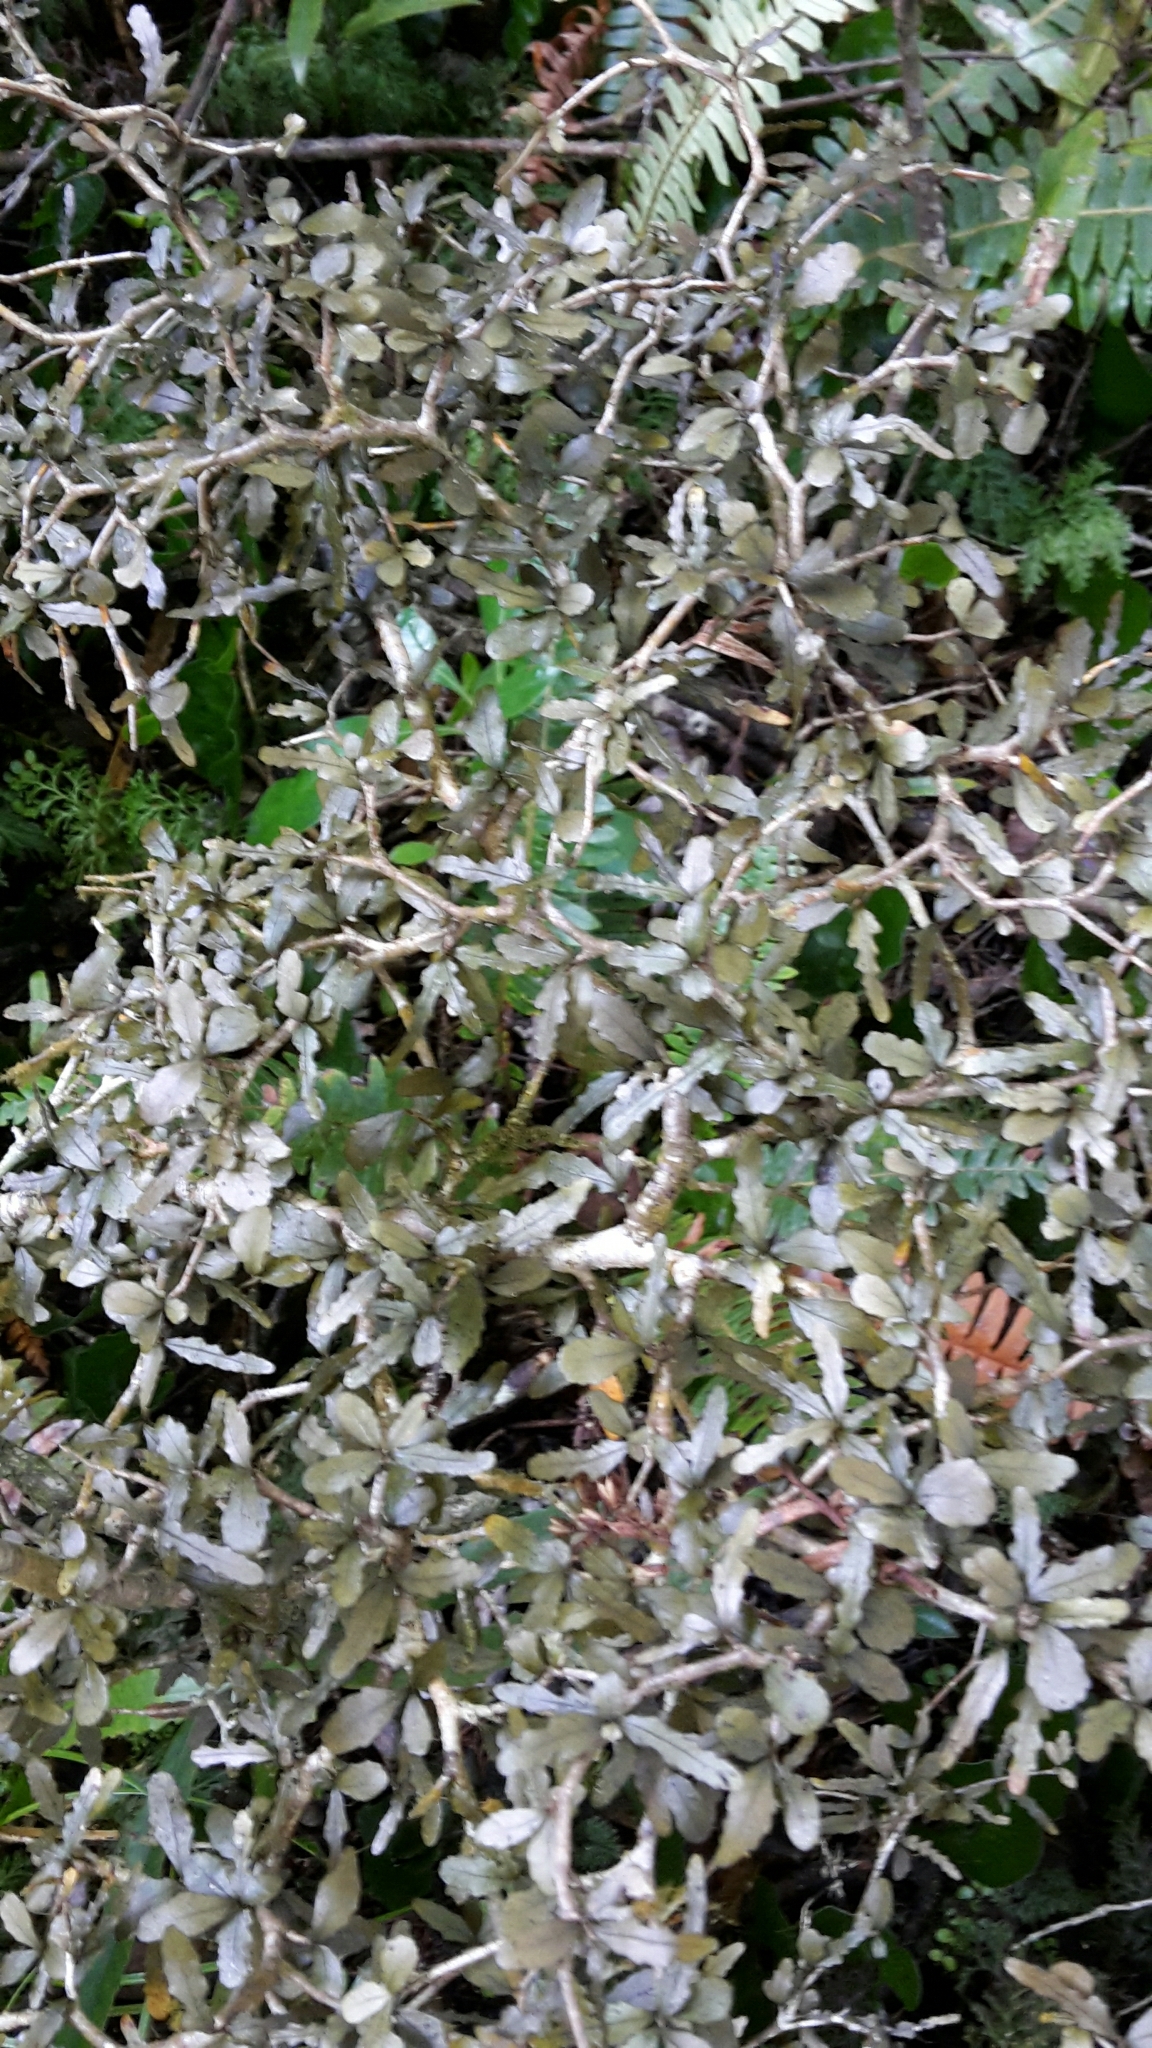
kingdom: Plantae
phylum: Tracheophyta
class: Magnoliopsida
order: Oxalidales
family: Elaeocarpaceae
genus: Elaeocarpus
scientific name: Elaeocarpus hookerianus
